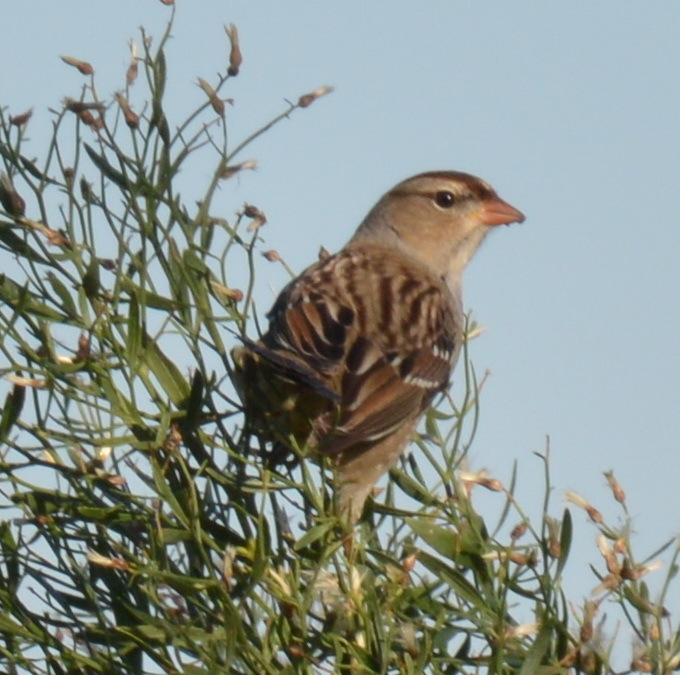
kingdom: Animalia
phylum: Chordata
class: Aves
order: Passeriformes
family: Passerellidae
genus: Zonotrichia
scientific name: Zonotrichia leucophrys
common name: White-crowned sparrow
